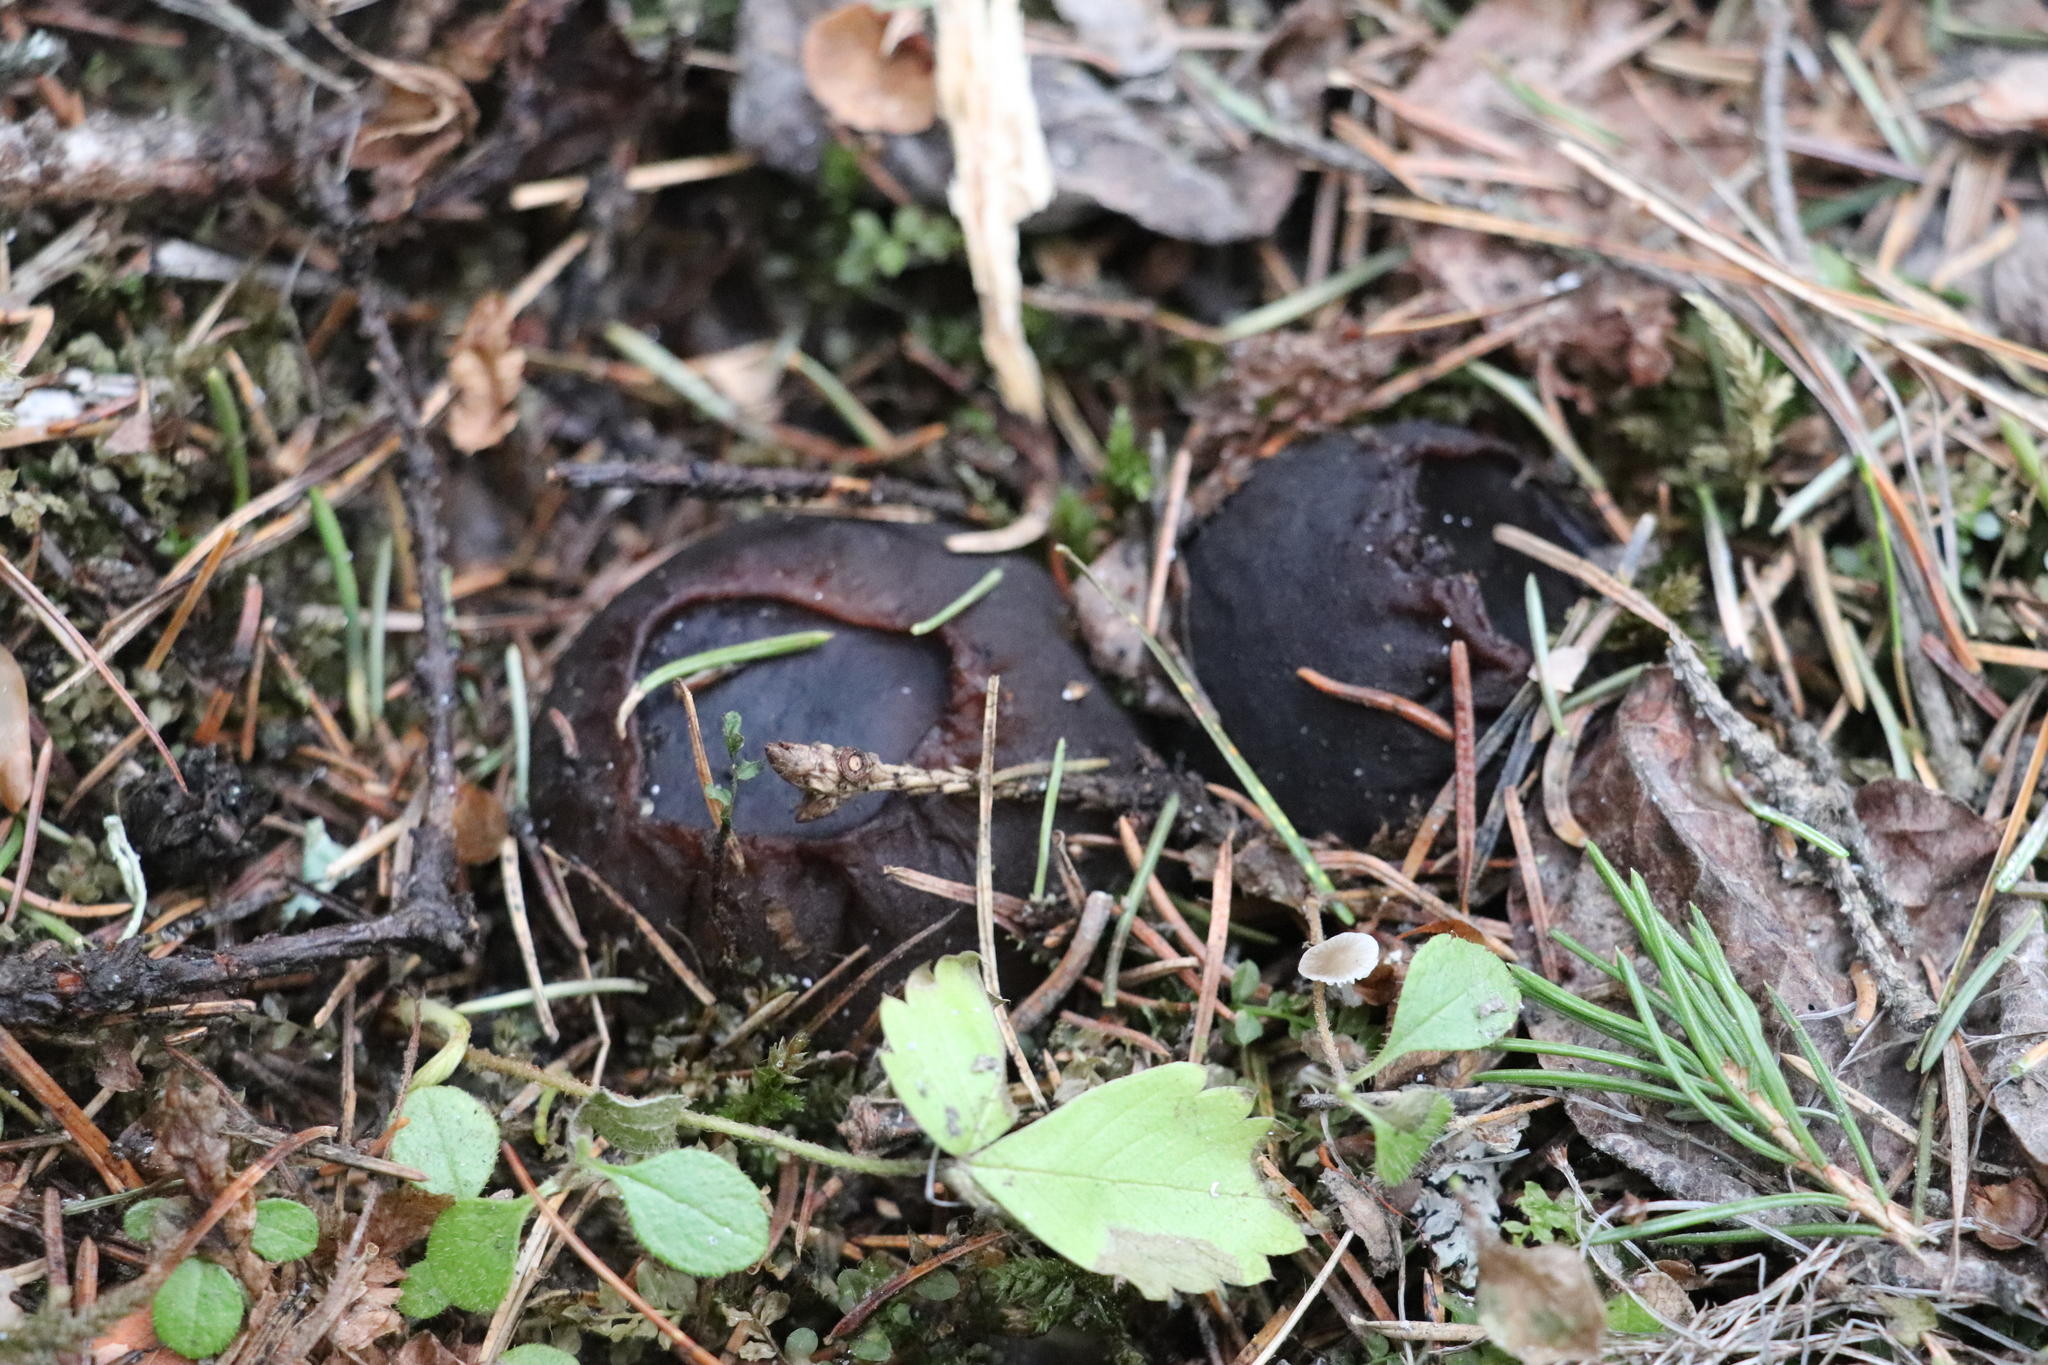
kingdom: Fungi
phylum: Ascomycota
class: Pezizomycetes
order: Pezizales
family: Sarcosomataceae
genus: Sarcosoma
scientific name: Sarcosoma globosum
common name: Charred-pancake cup
